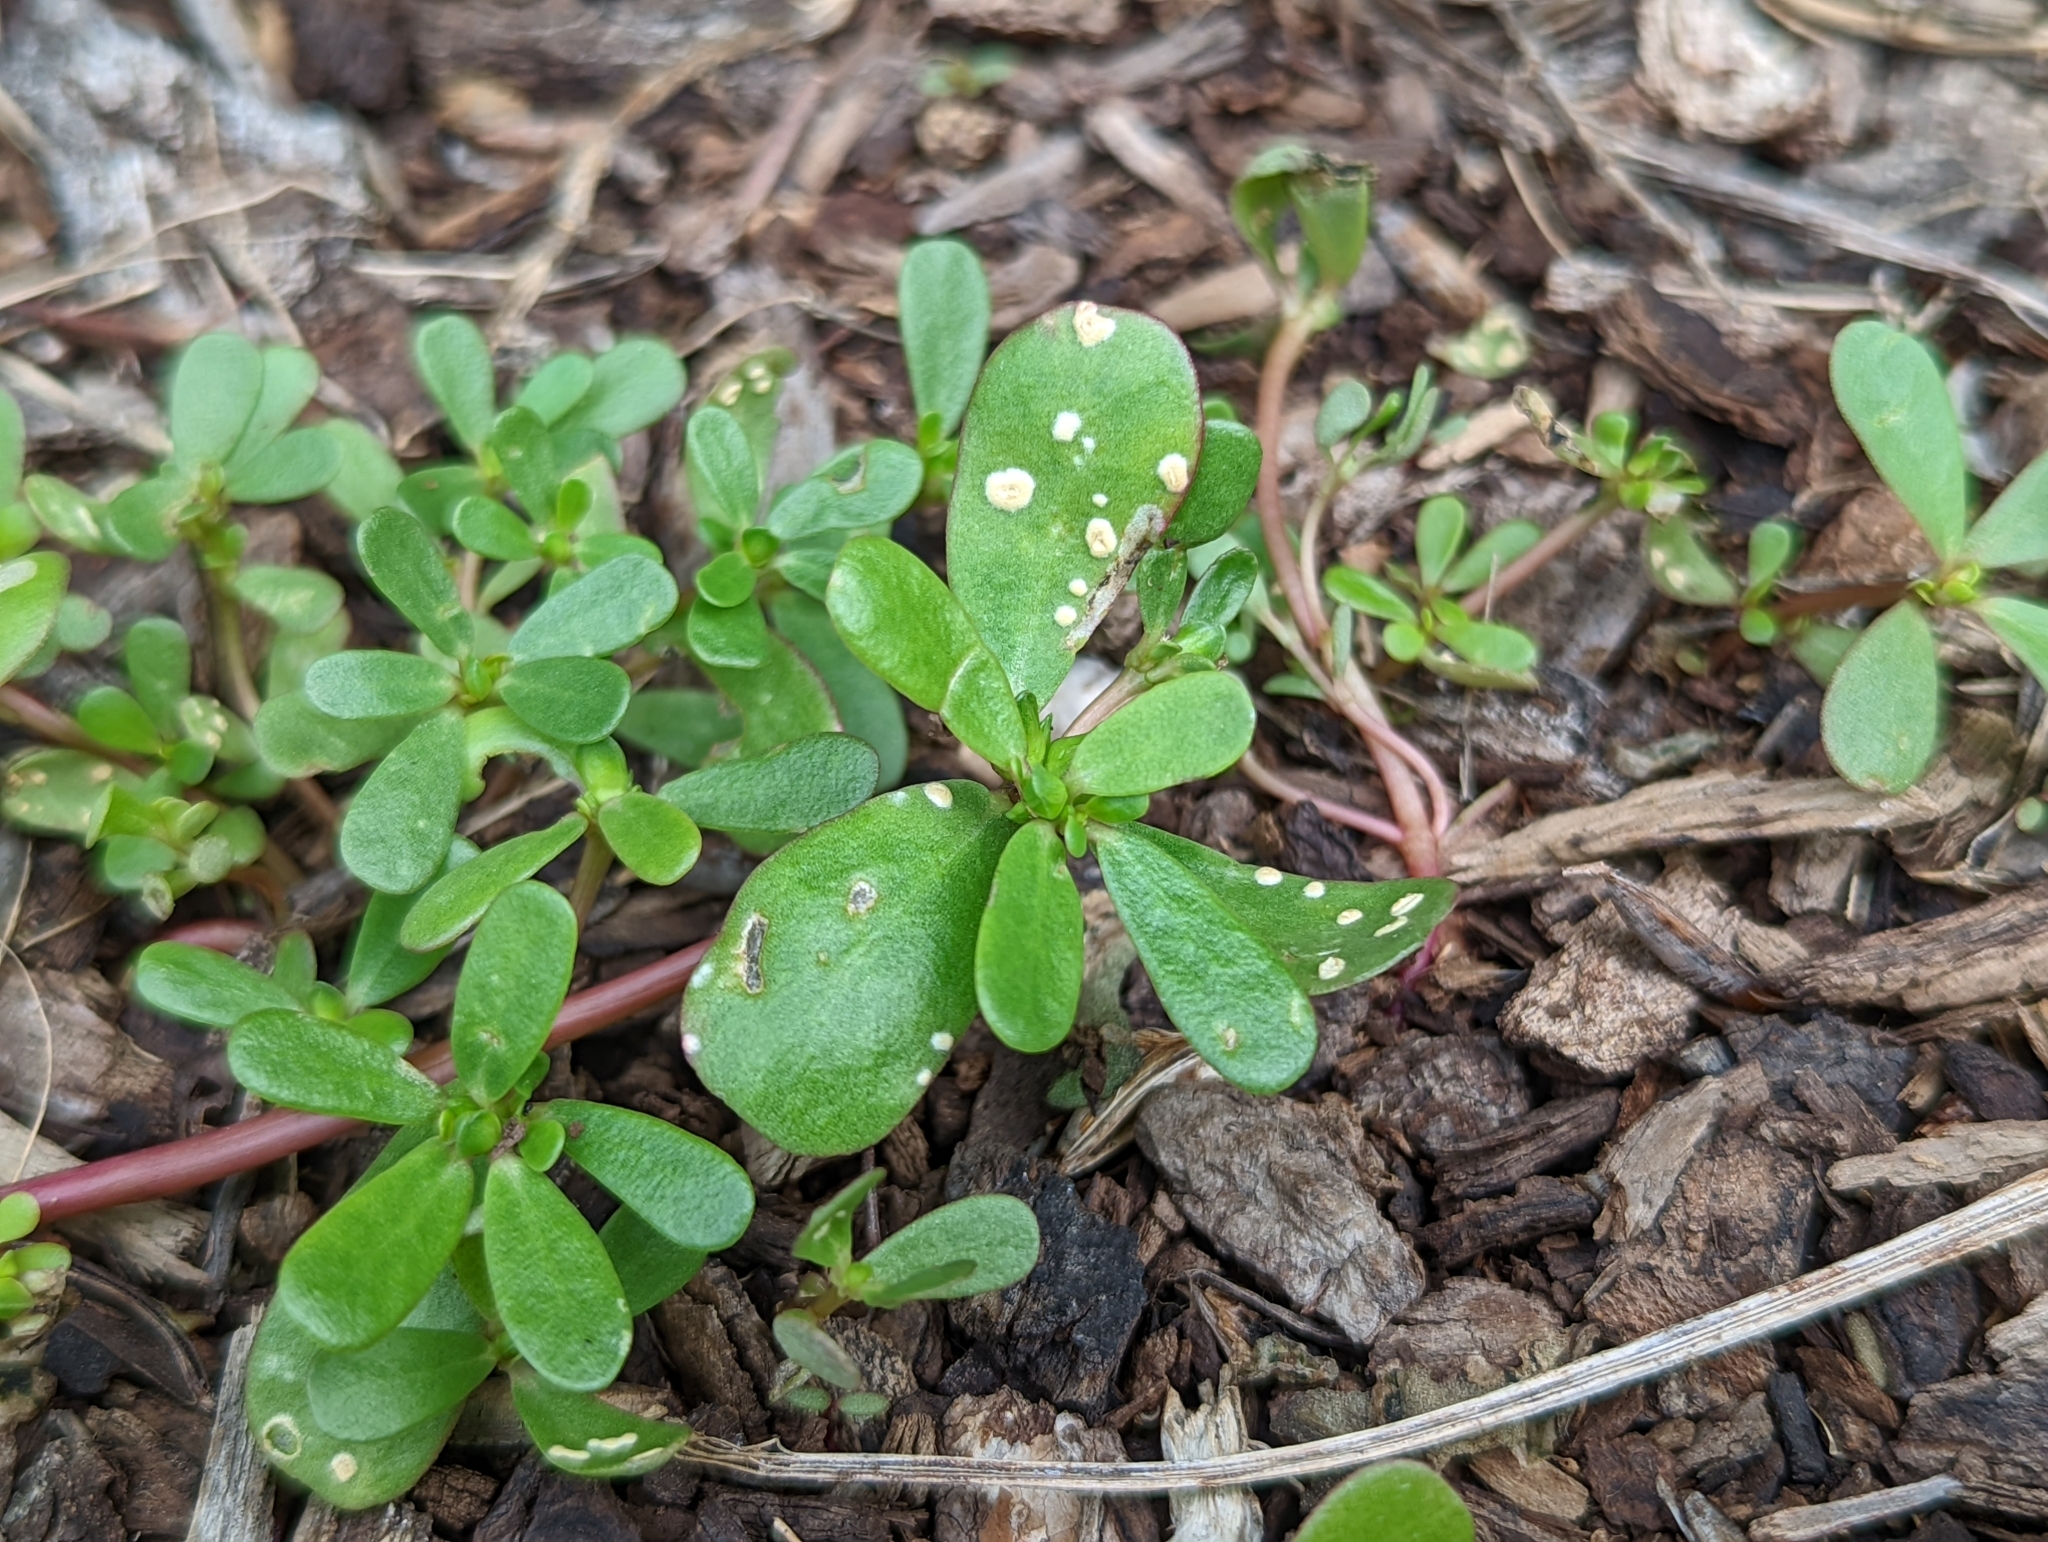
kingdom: Chromista
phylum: Oomycota
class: Peronosporea
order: Albuginales
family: Albuginaceae
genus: Wilsoniana
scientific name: Wilsoniana portulacae
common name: Purslane white rust
